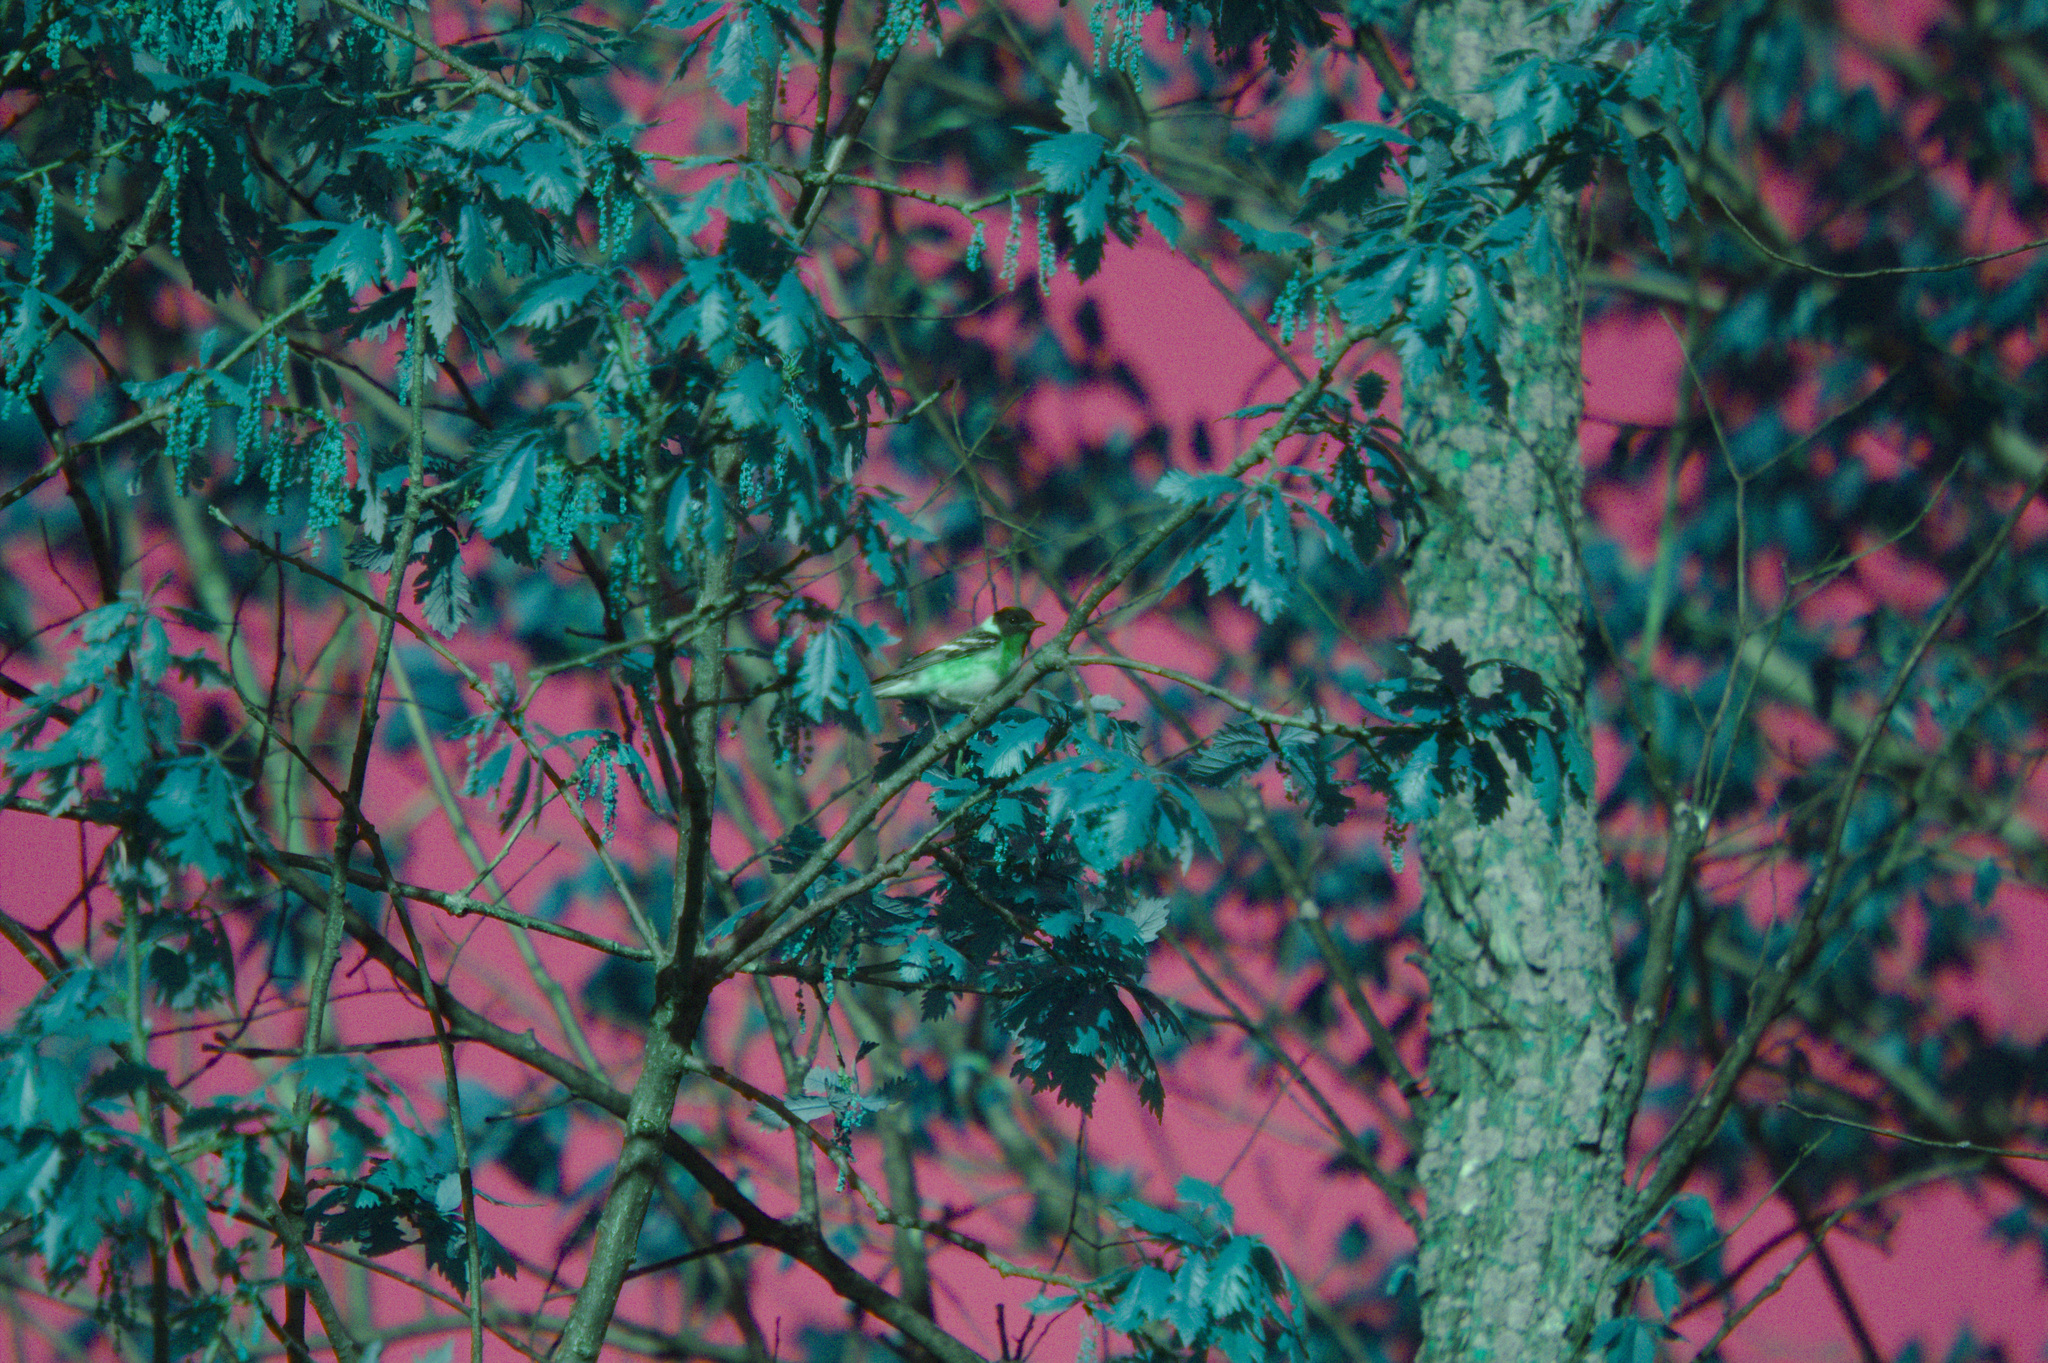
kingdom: Animalia
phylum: Chordata
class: Aves
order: Passeriformes
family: Parulidae
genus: Setophaga
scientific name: Setophaga castanea
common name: Bay-breasted warbler
